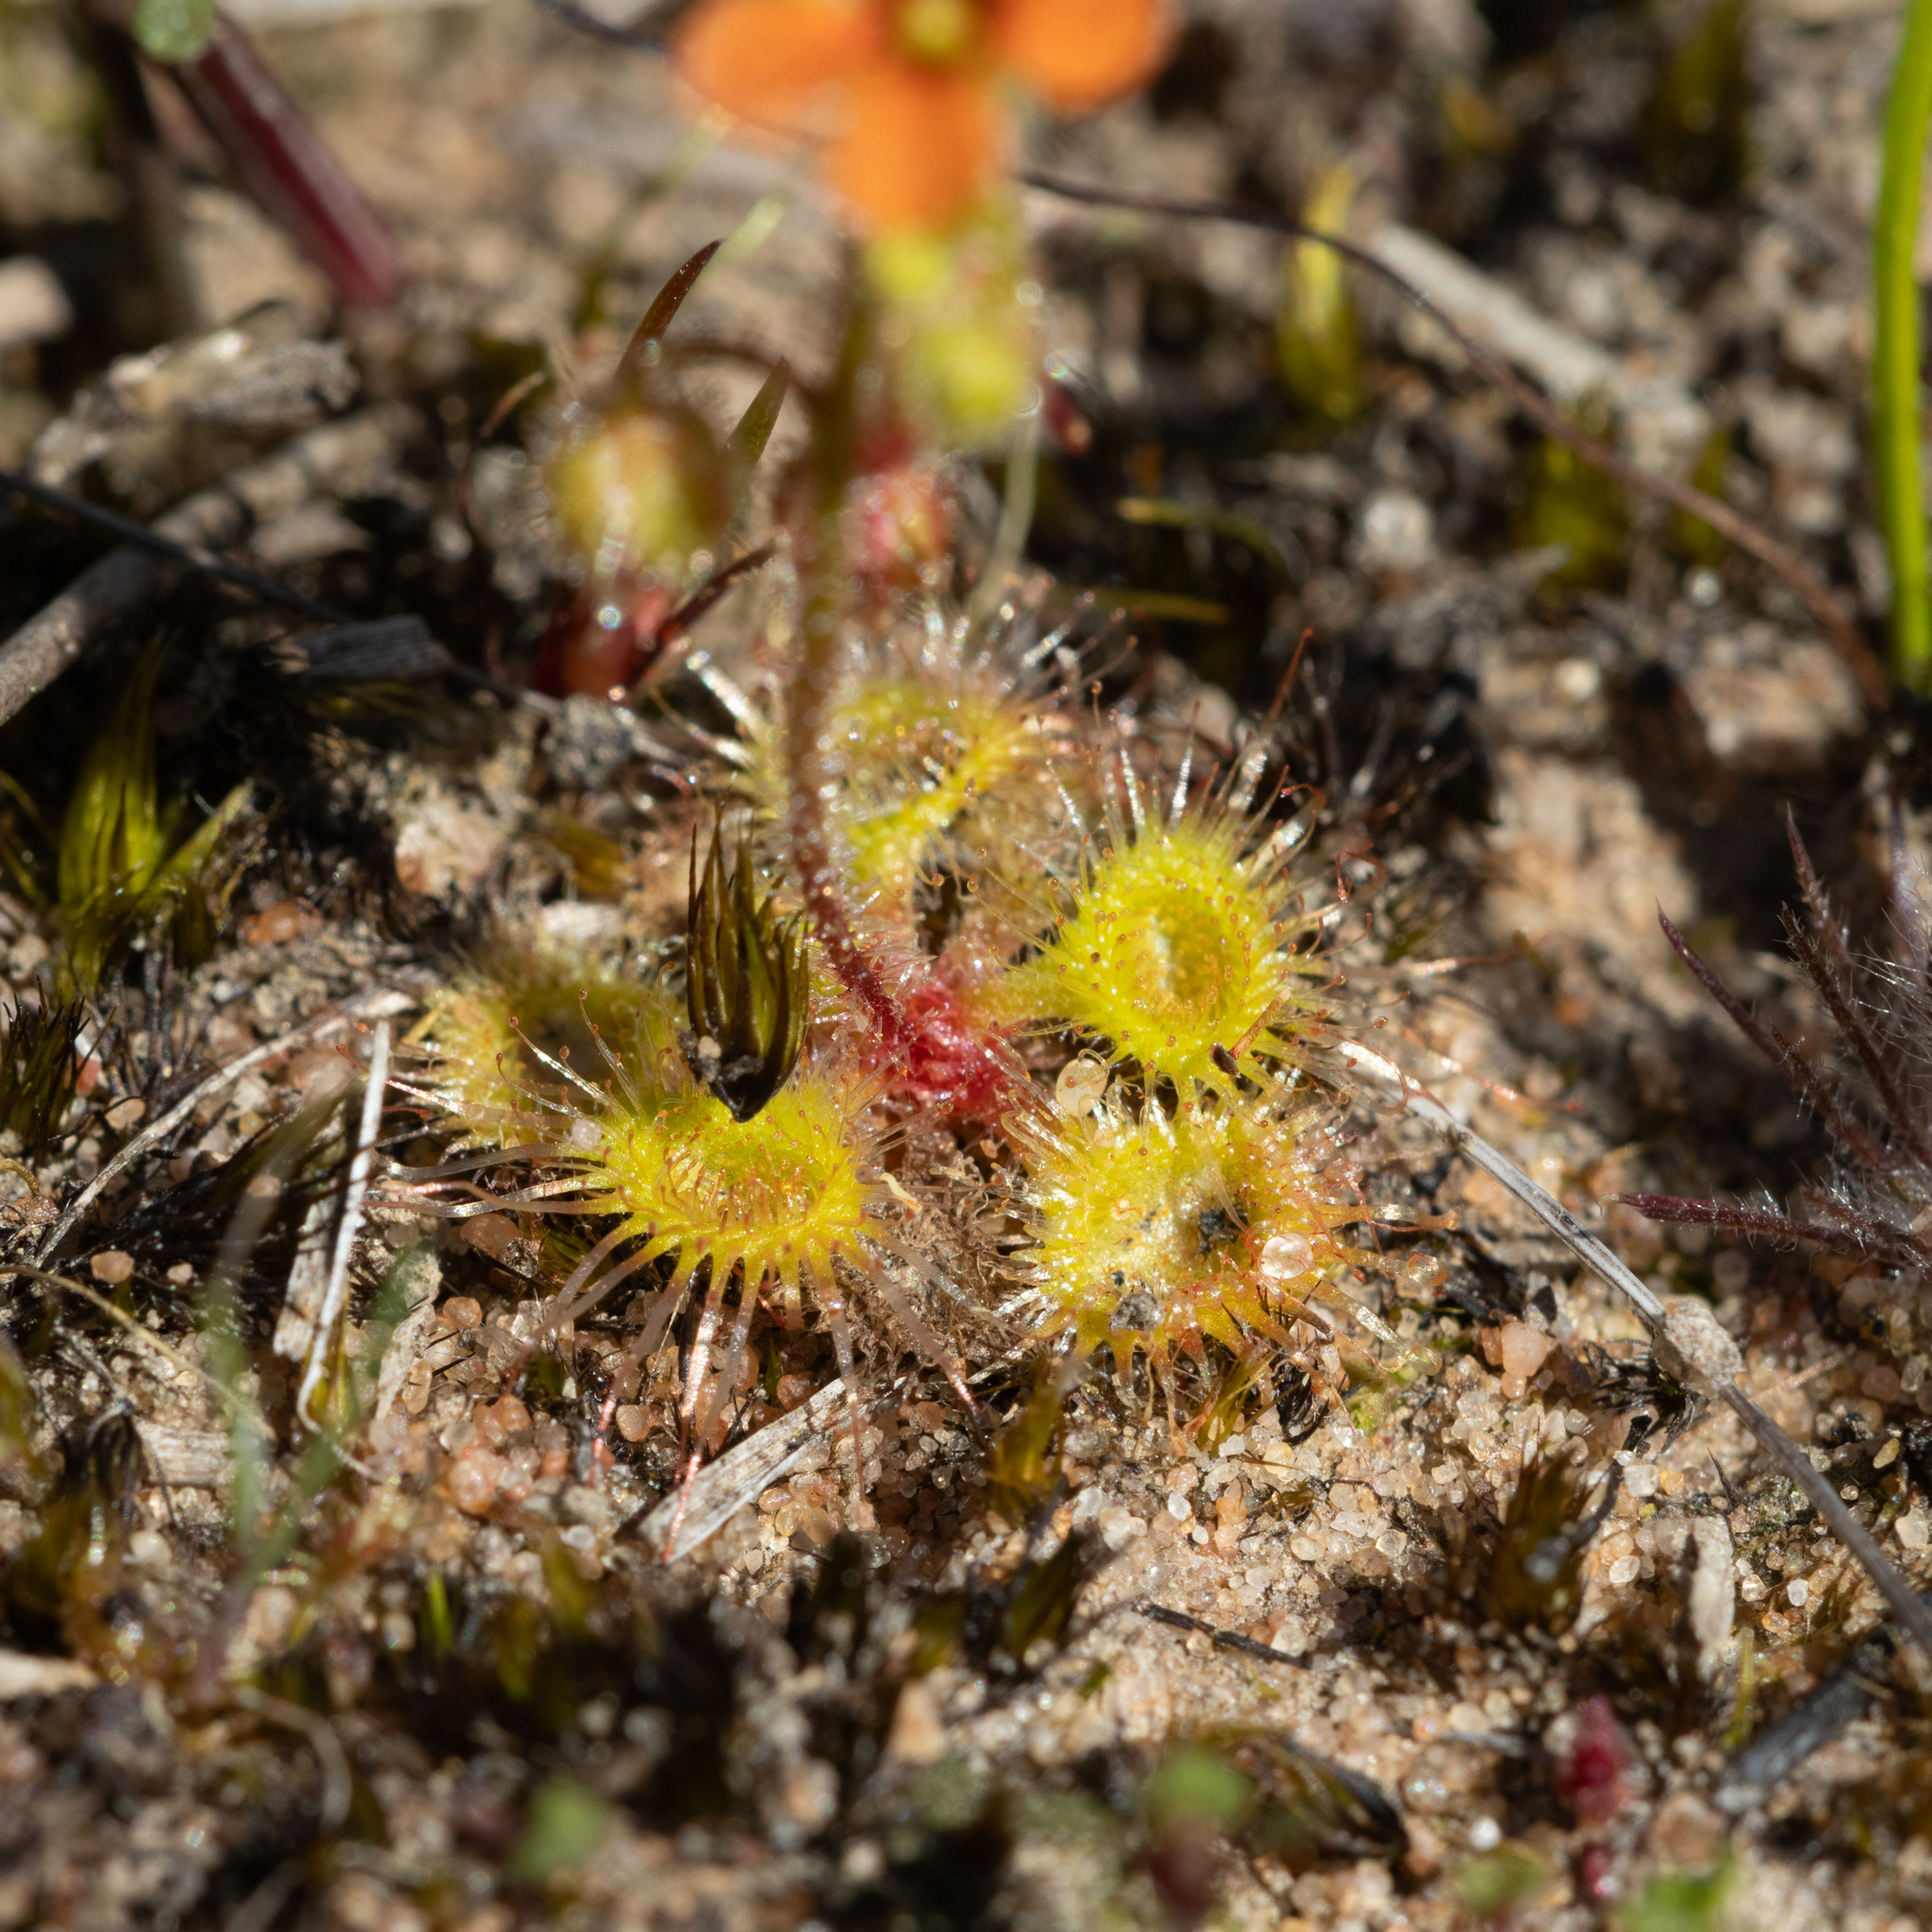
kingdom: Plantae
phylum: Tracheophyta
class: Magnoliopsida
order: Caryophyllales
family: Droseraceae
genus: Drosera
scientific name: Drosera glanduligera
